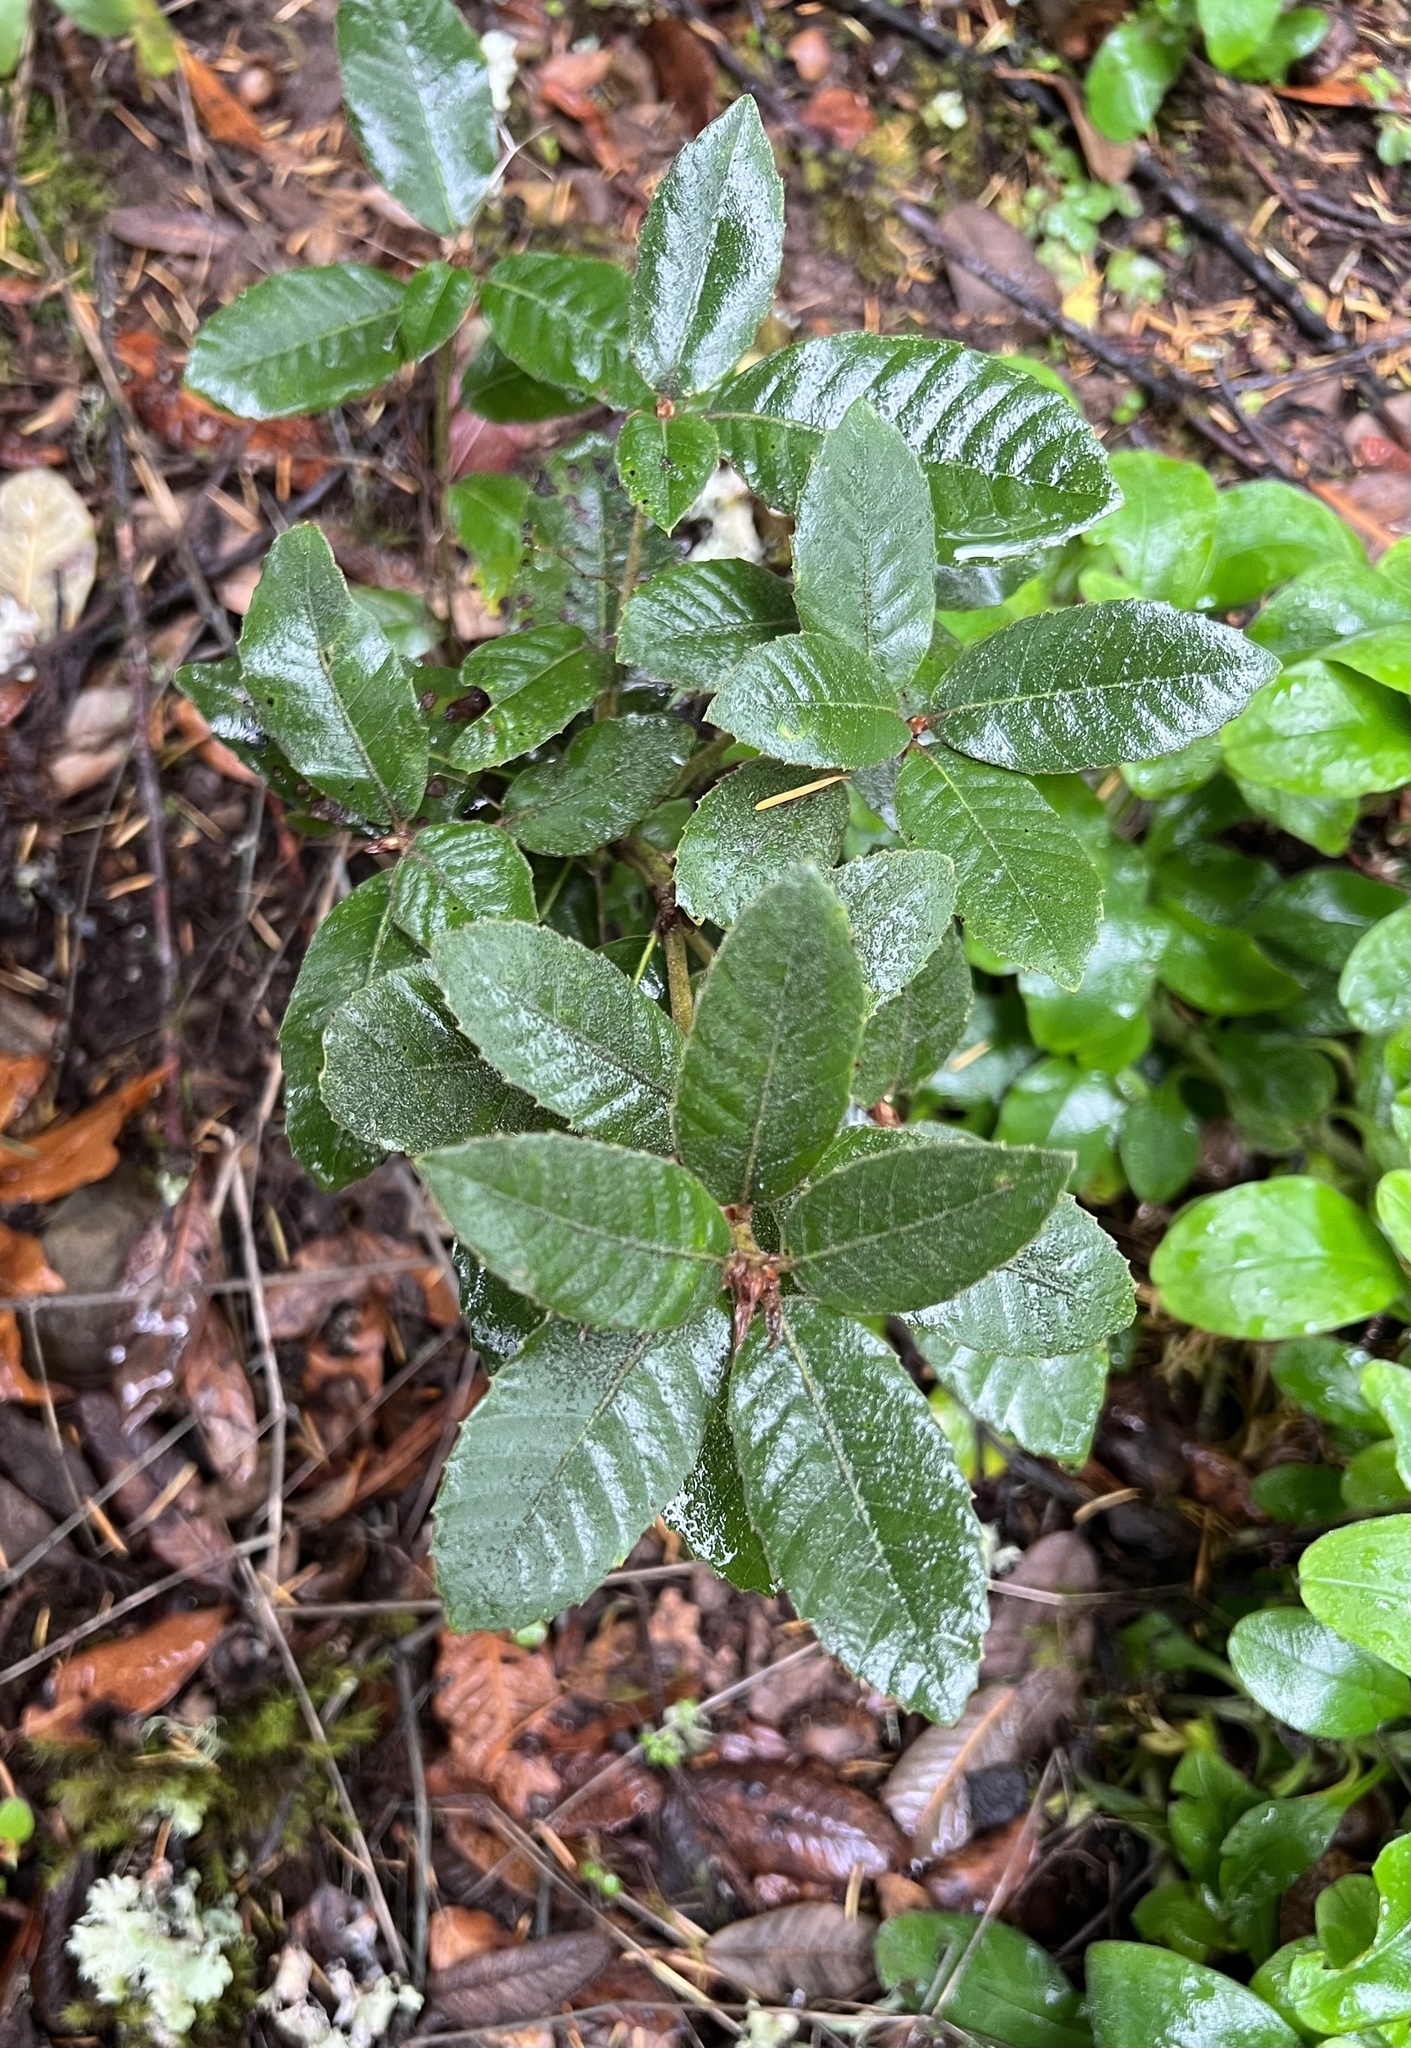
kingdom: Plantae
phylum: Tracheophyta
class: Magnoliopsida
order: Fagales
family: Fagaceae
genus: Notholithocarpus
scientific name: Notholithocarpus densiflorus
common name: Tan bark oak
